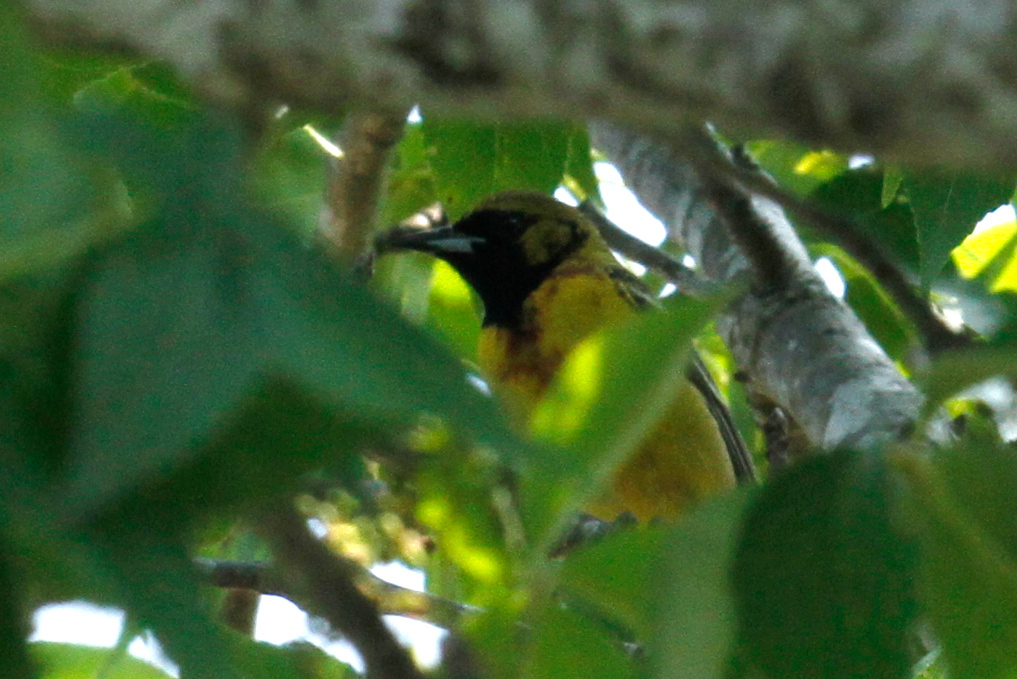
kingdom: Animalia
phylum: Chordata
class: Aves
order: Passeriformes
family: Icteridae
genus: Icterus
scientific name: Icterus spurius
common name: Orchard oriole
